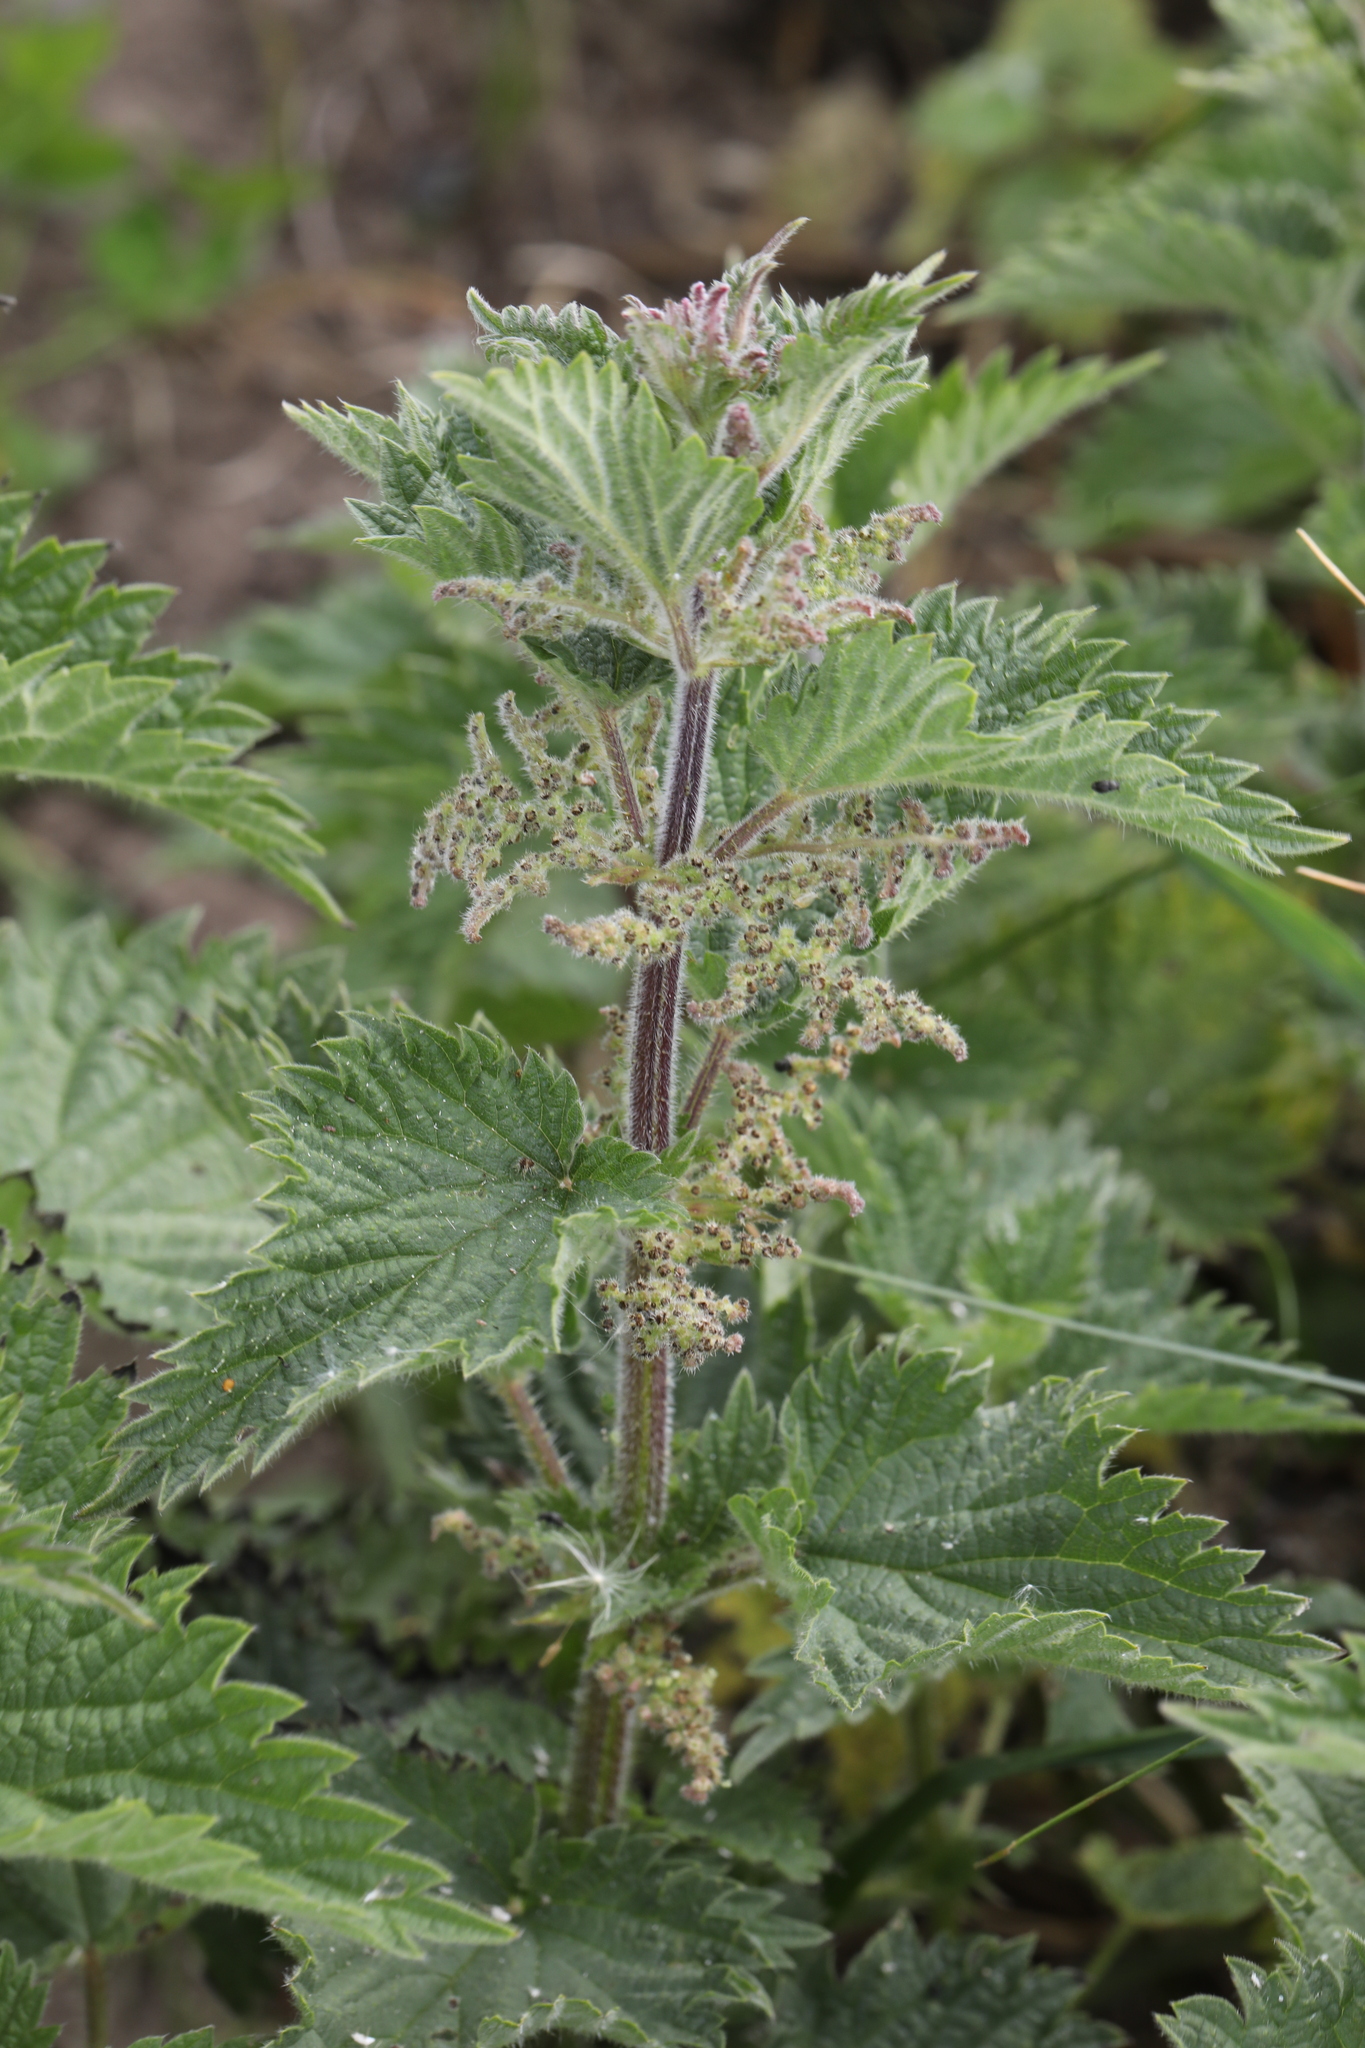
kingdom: Plantae
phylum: Tracheophyta
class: Magnoliopsida
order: Rosales
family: Urticaceae
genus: Urtica
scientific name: Urtica dioica
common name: Common nettle
